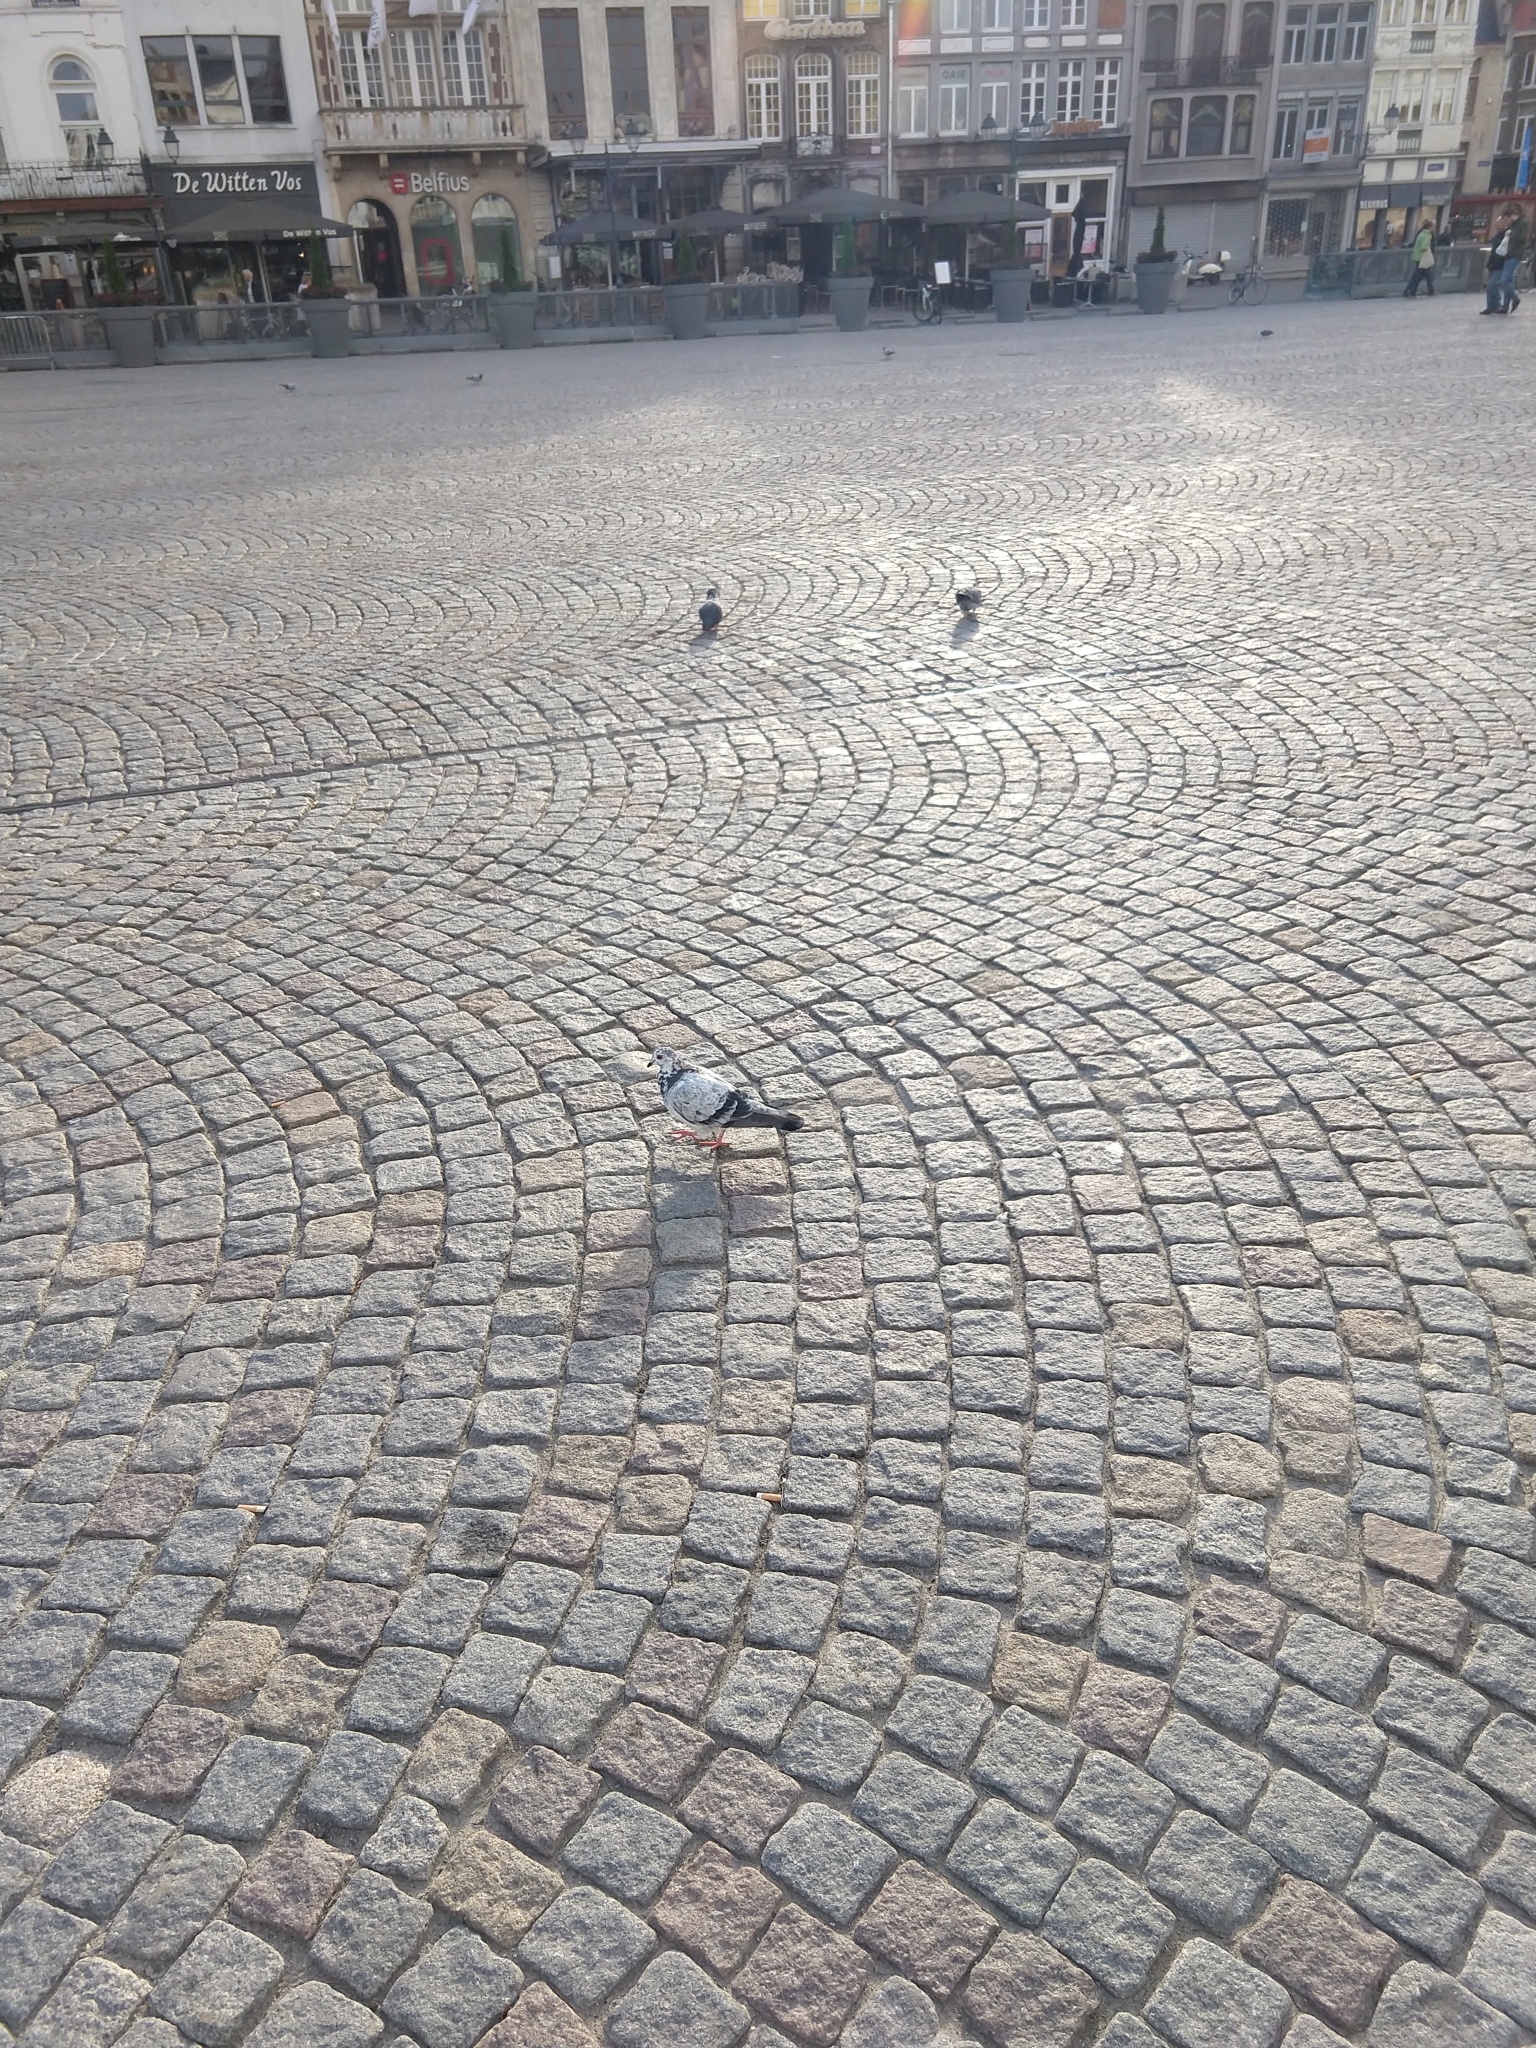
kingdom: Animalia
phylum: Chordata
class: Aves
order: Columbiformes
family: Columbidae
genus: Columba
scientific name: Columba livia
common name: Rock pigeon
